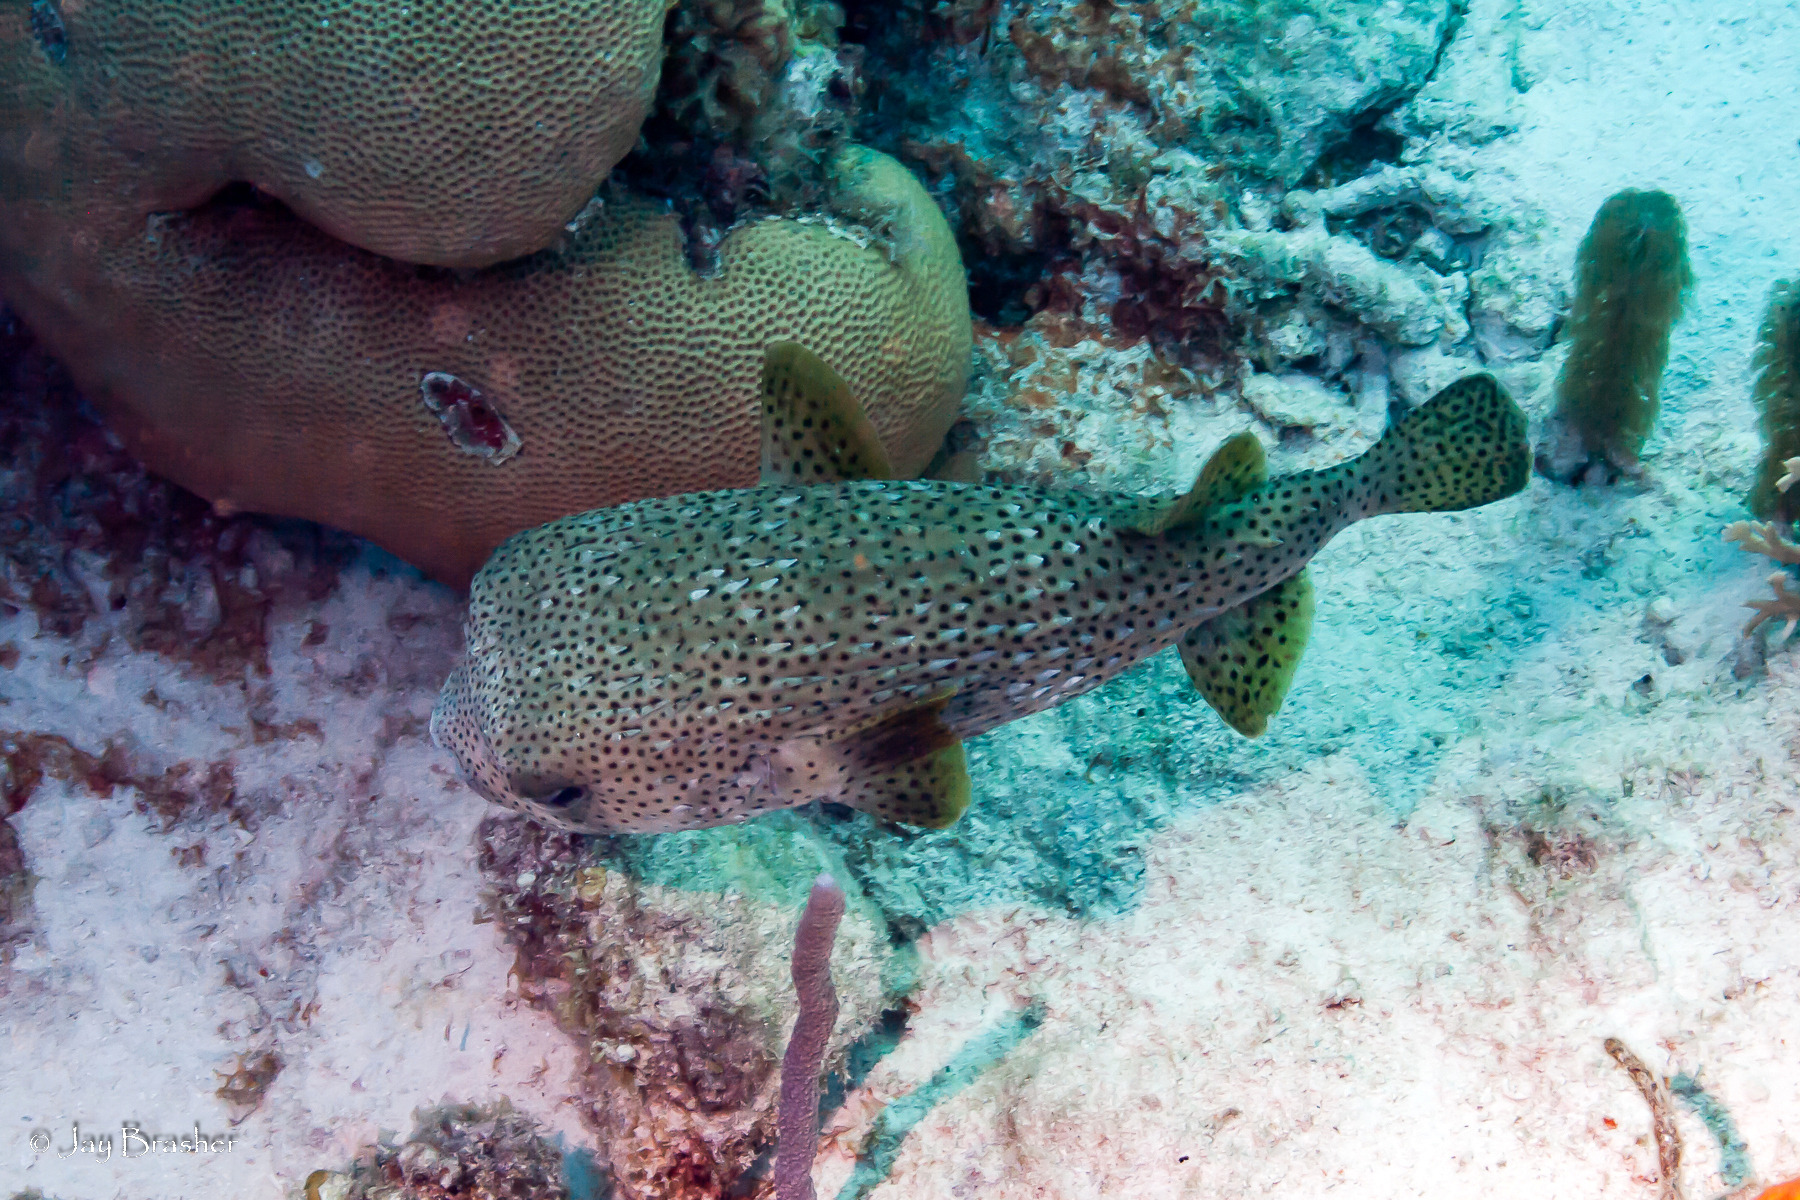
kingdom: Animalia
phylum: Chordata
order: Tetraodontiformes
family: Diodontidae
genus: Diodon
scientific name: Diodon hystrix
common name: Giant porcupinefish
